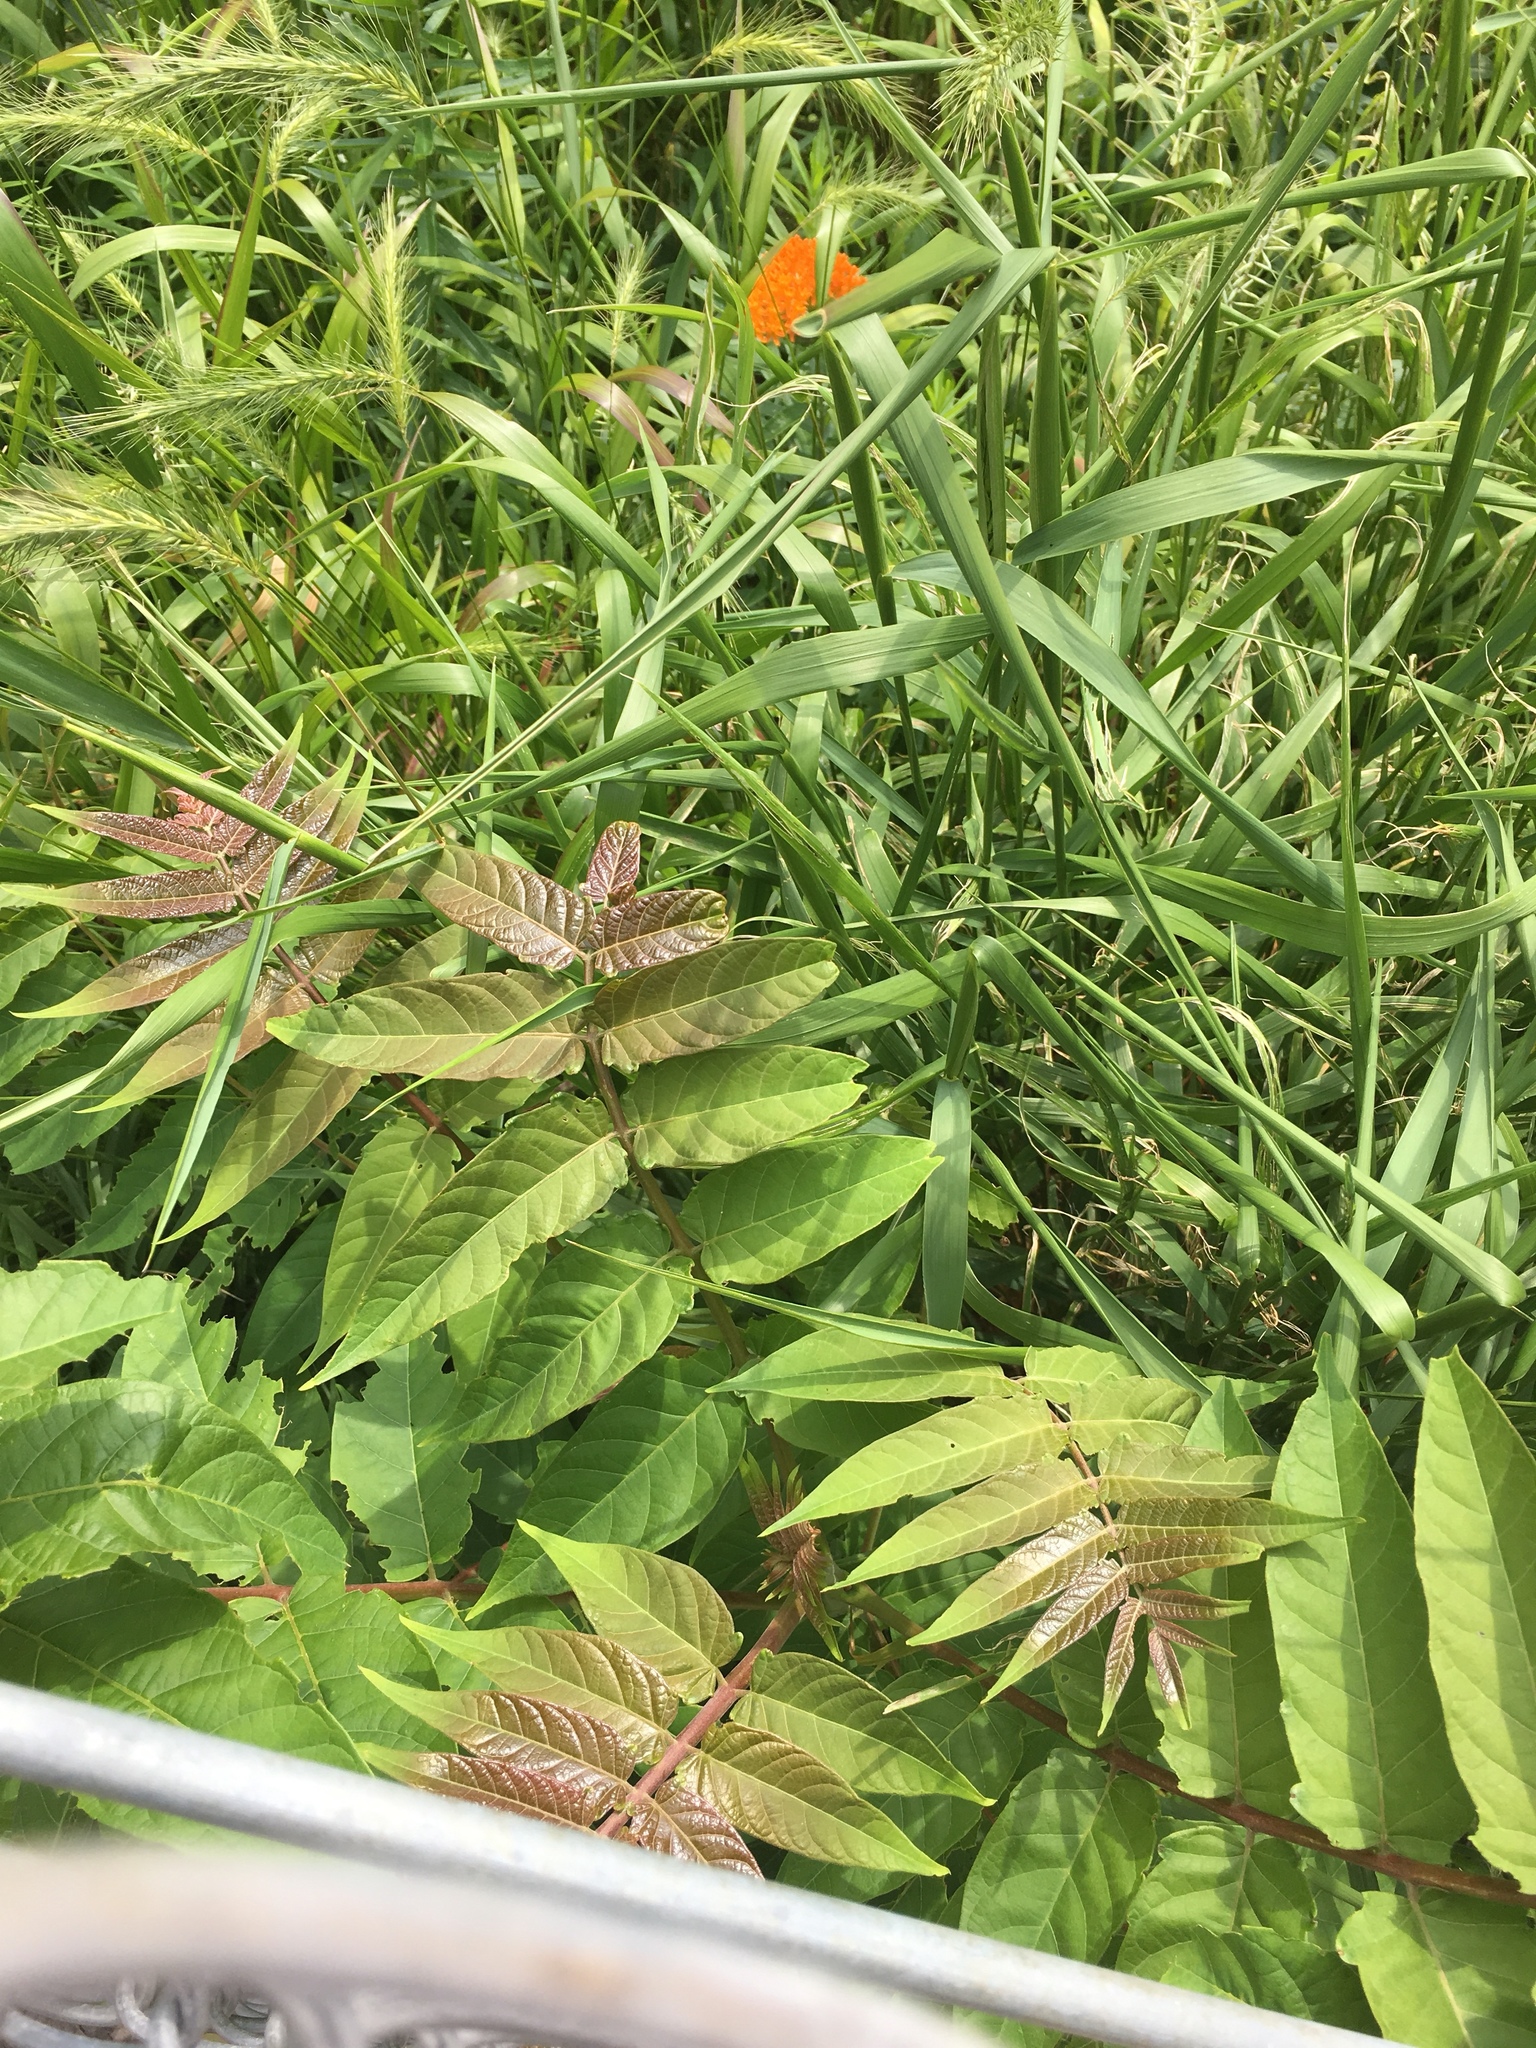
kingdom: Plantae
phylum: Tracheophyta
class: Magnoliopsida
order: Sapindales
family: Simaroubaceae
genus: Ailanthus
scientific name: Ailanthus altissima
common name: Tree-of-heaven
